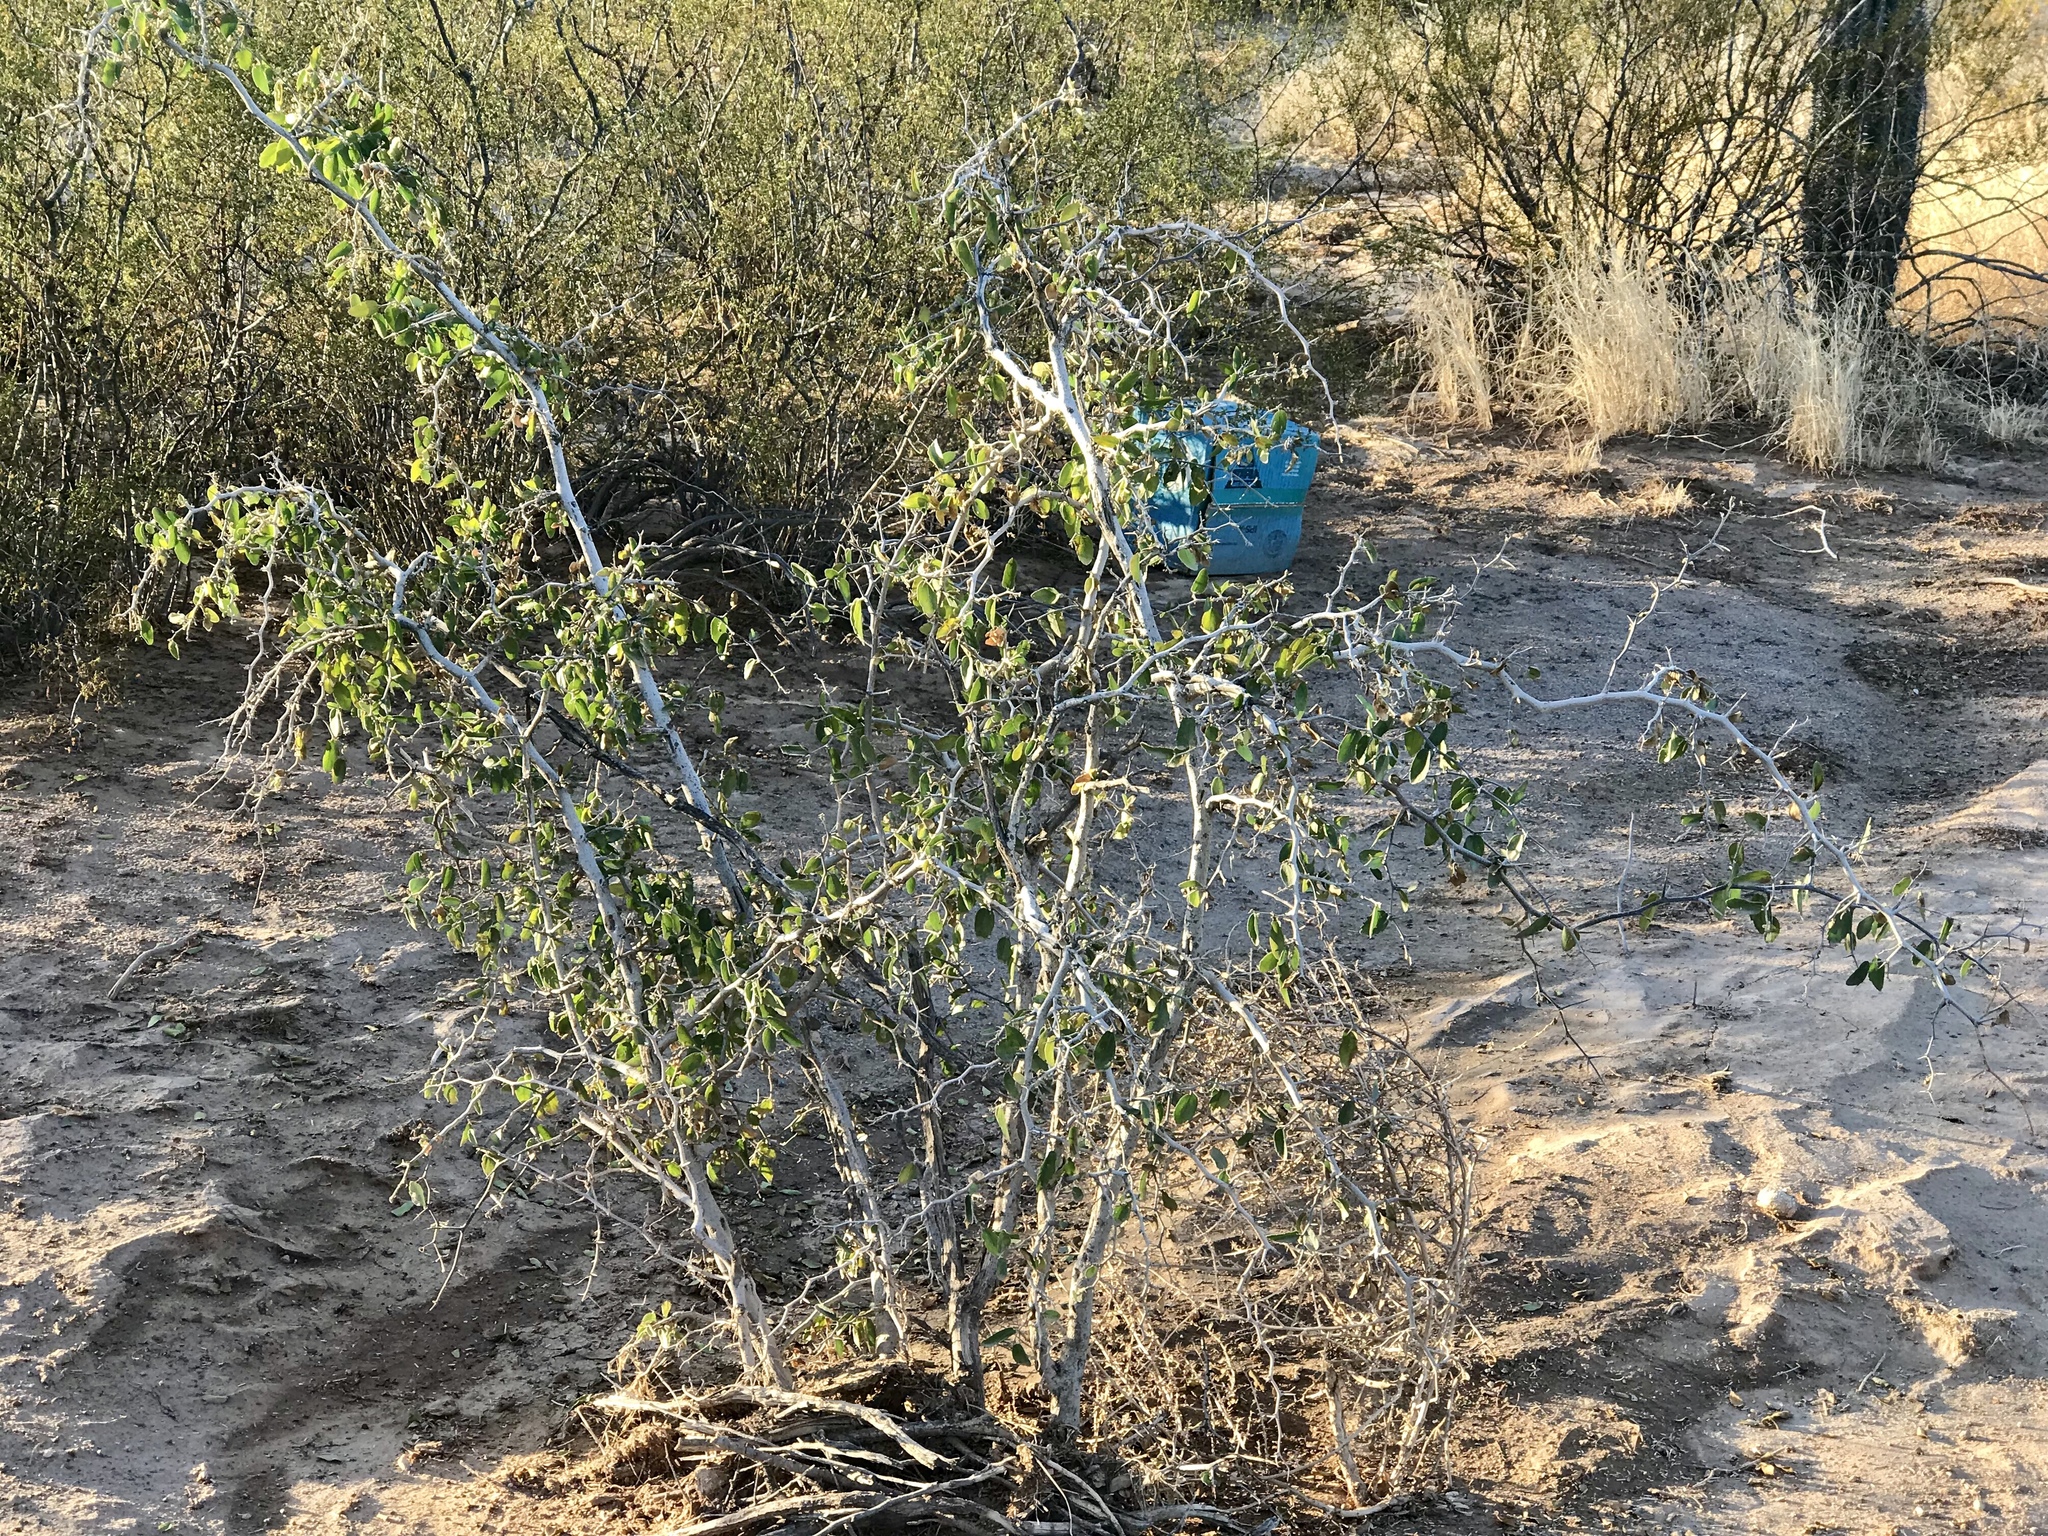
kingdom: Plantae
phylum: Tracheophyta
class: Magnoliopsida
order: Rosales
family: Cannabaceae
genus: Celtis
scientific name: Celtis pallida
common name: Desert hackberry
